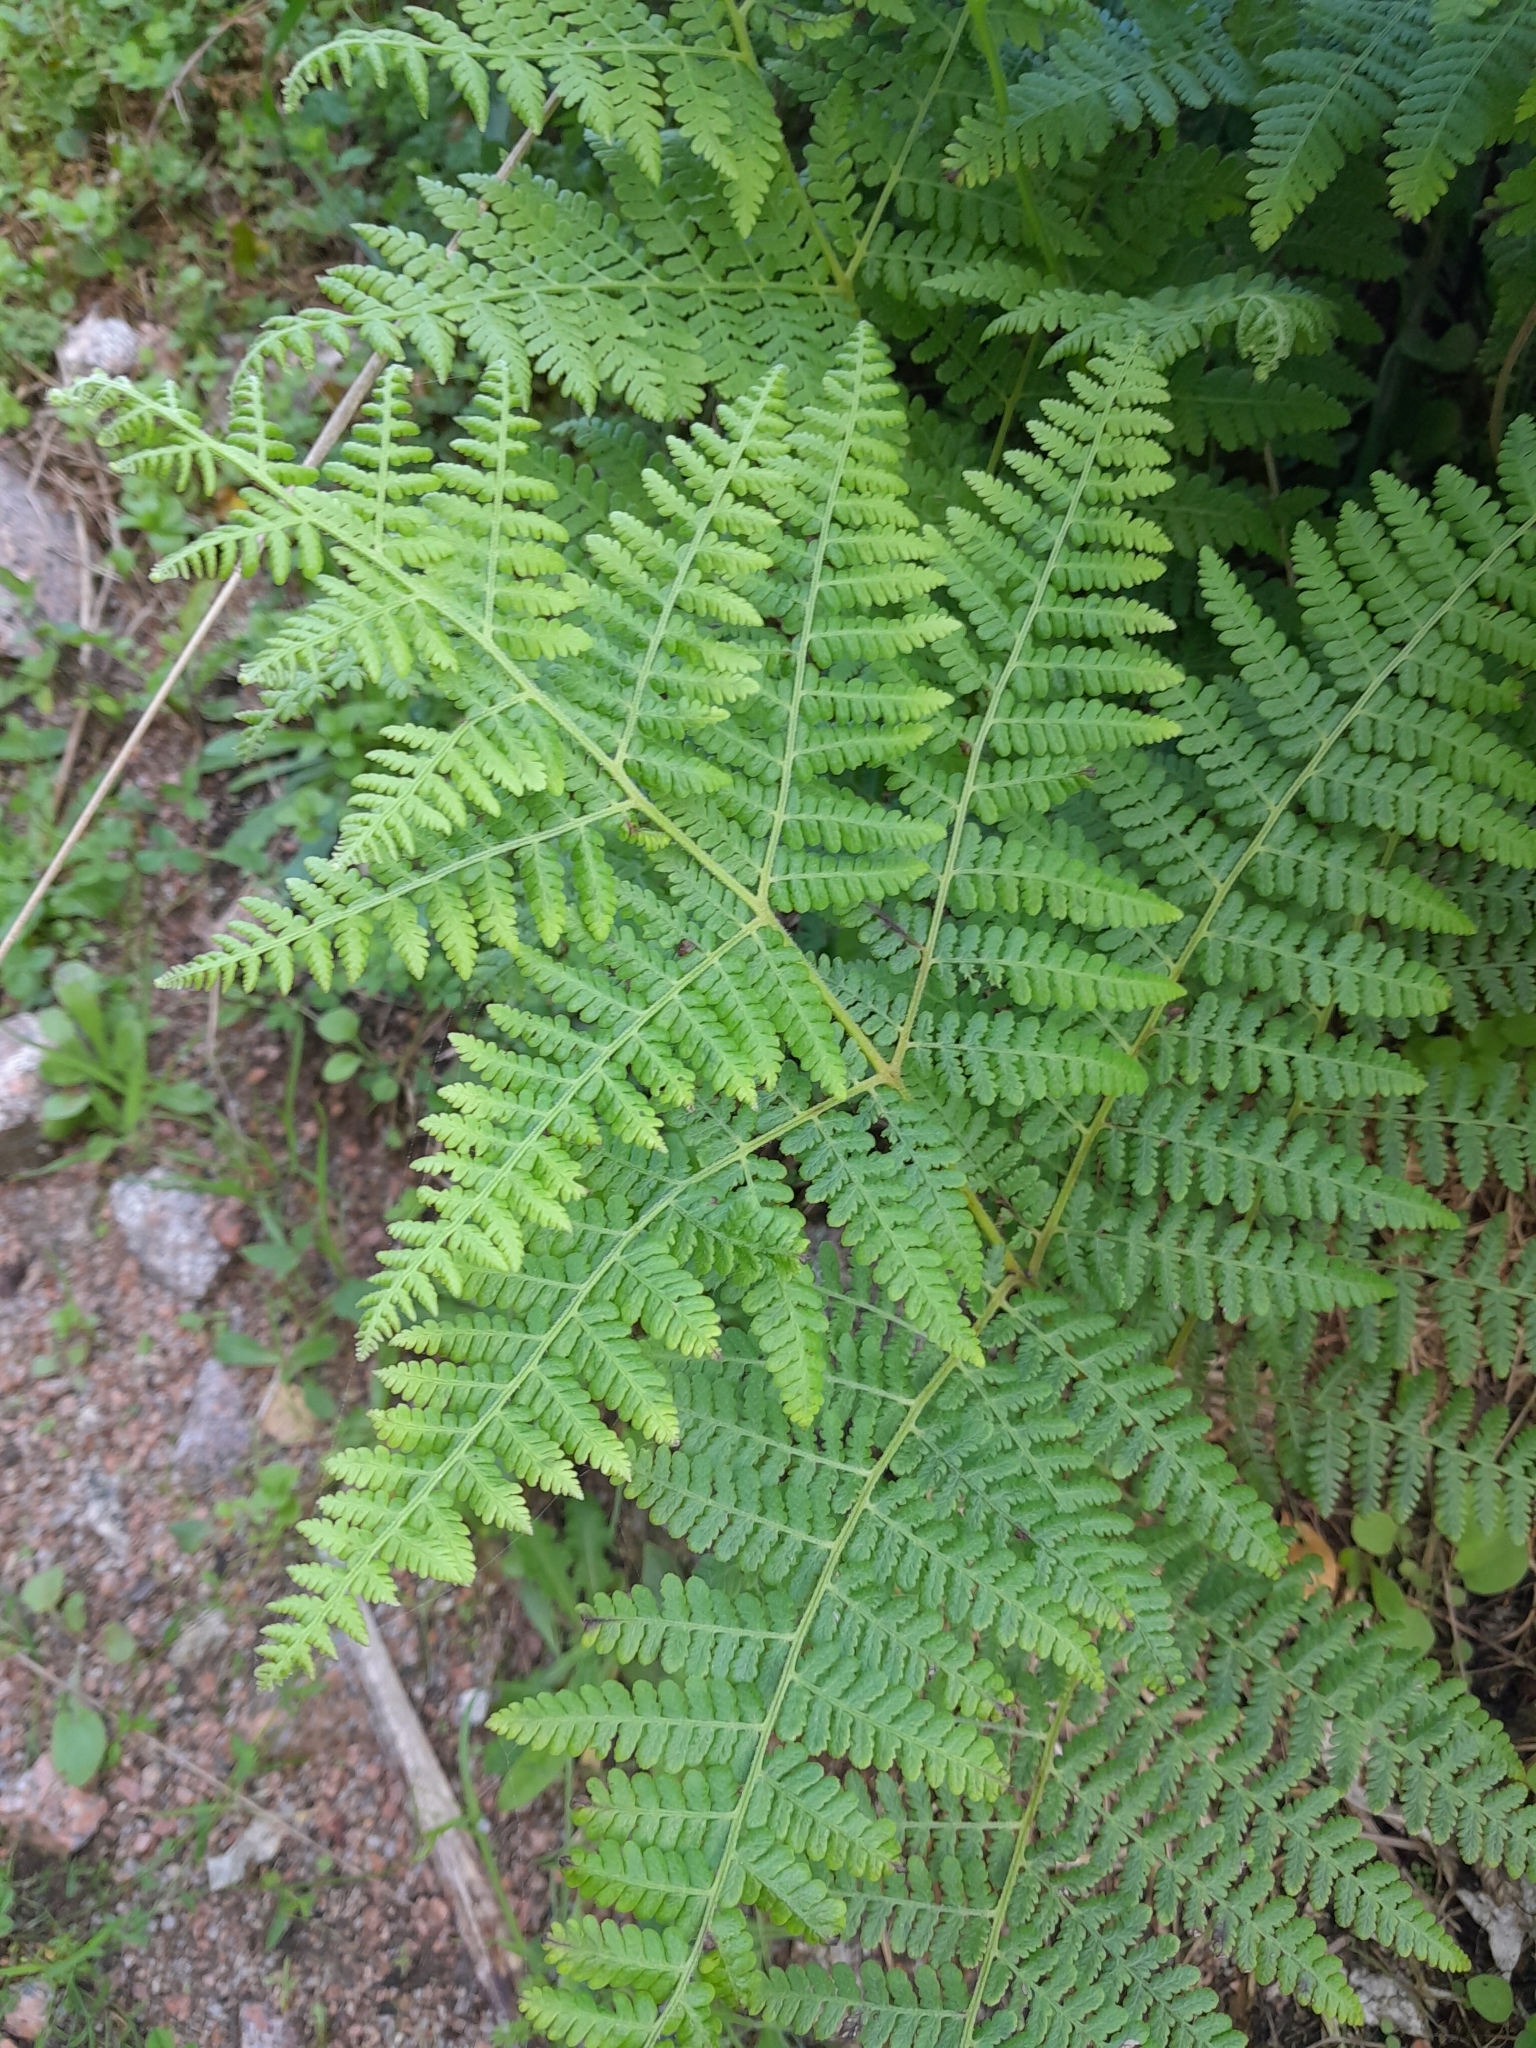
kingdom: Plantae
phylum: Tracheophyta
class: Polypodiopsida
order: Polypodiales
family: Dennstaedtiaceae
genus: Hypolepis
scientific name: Hypolepis ambigua
